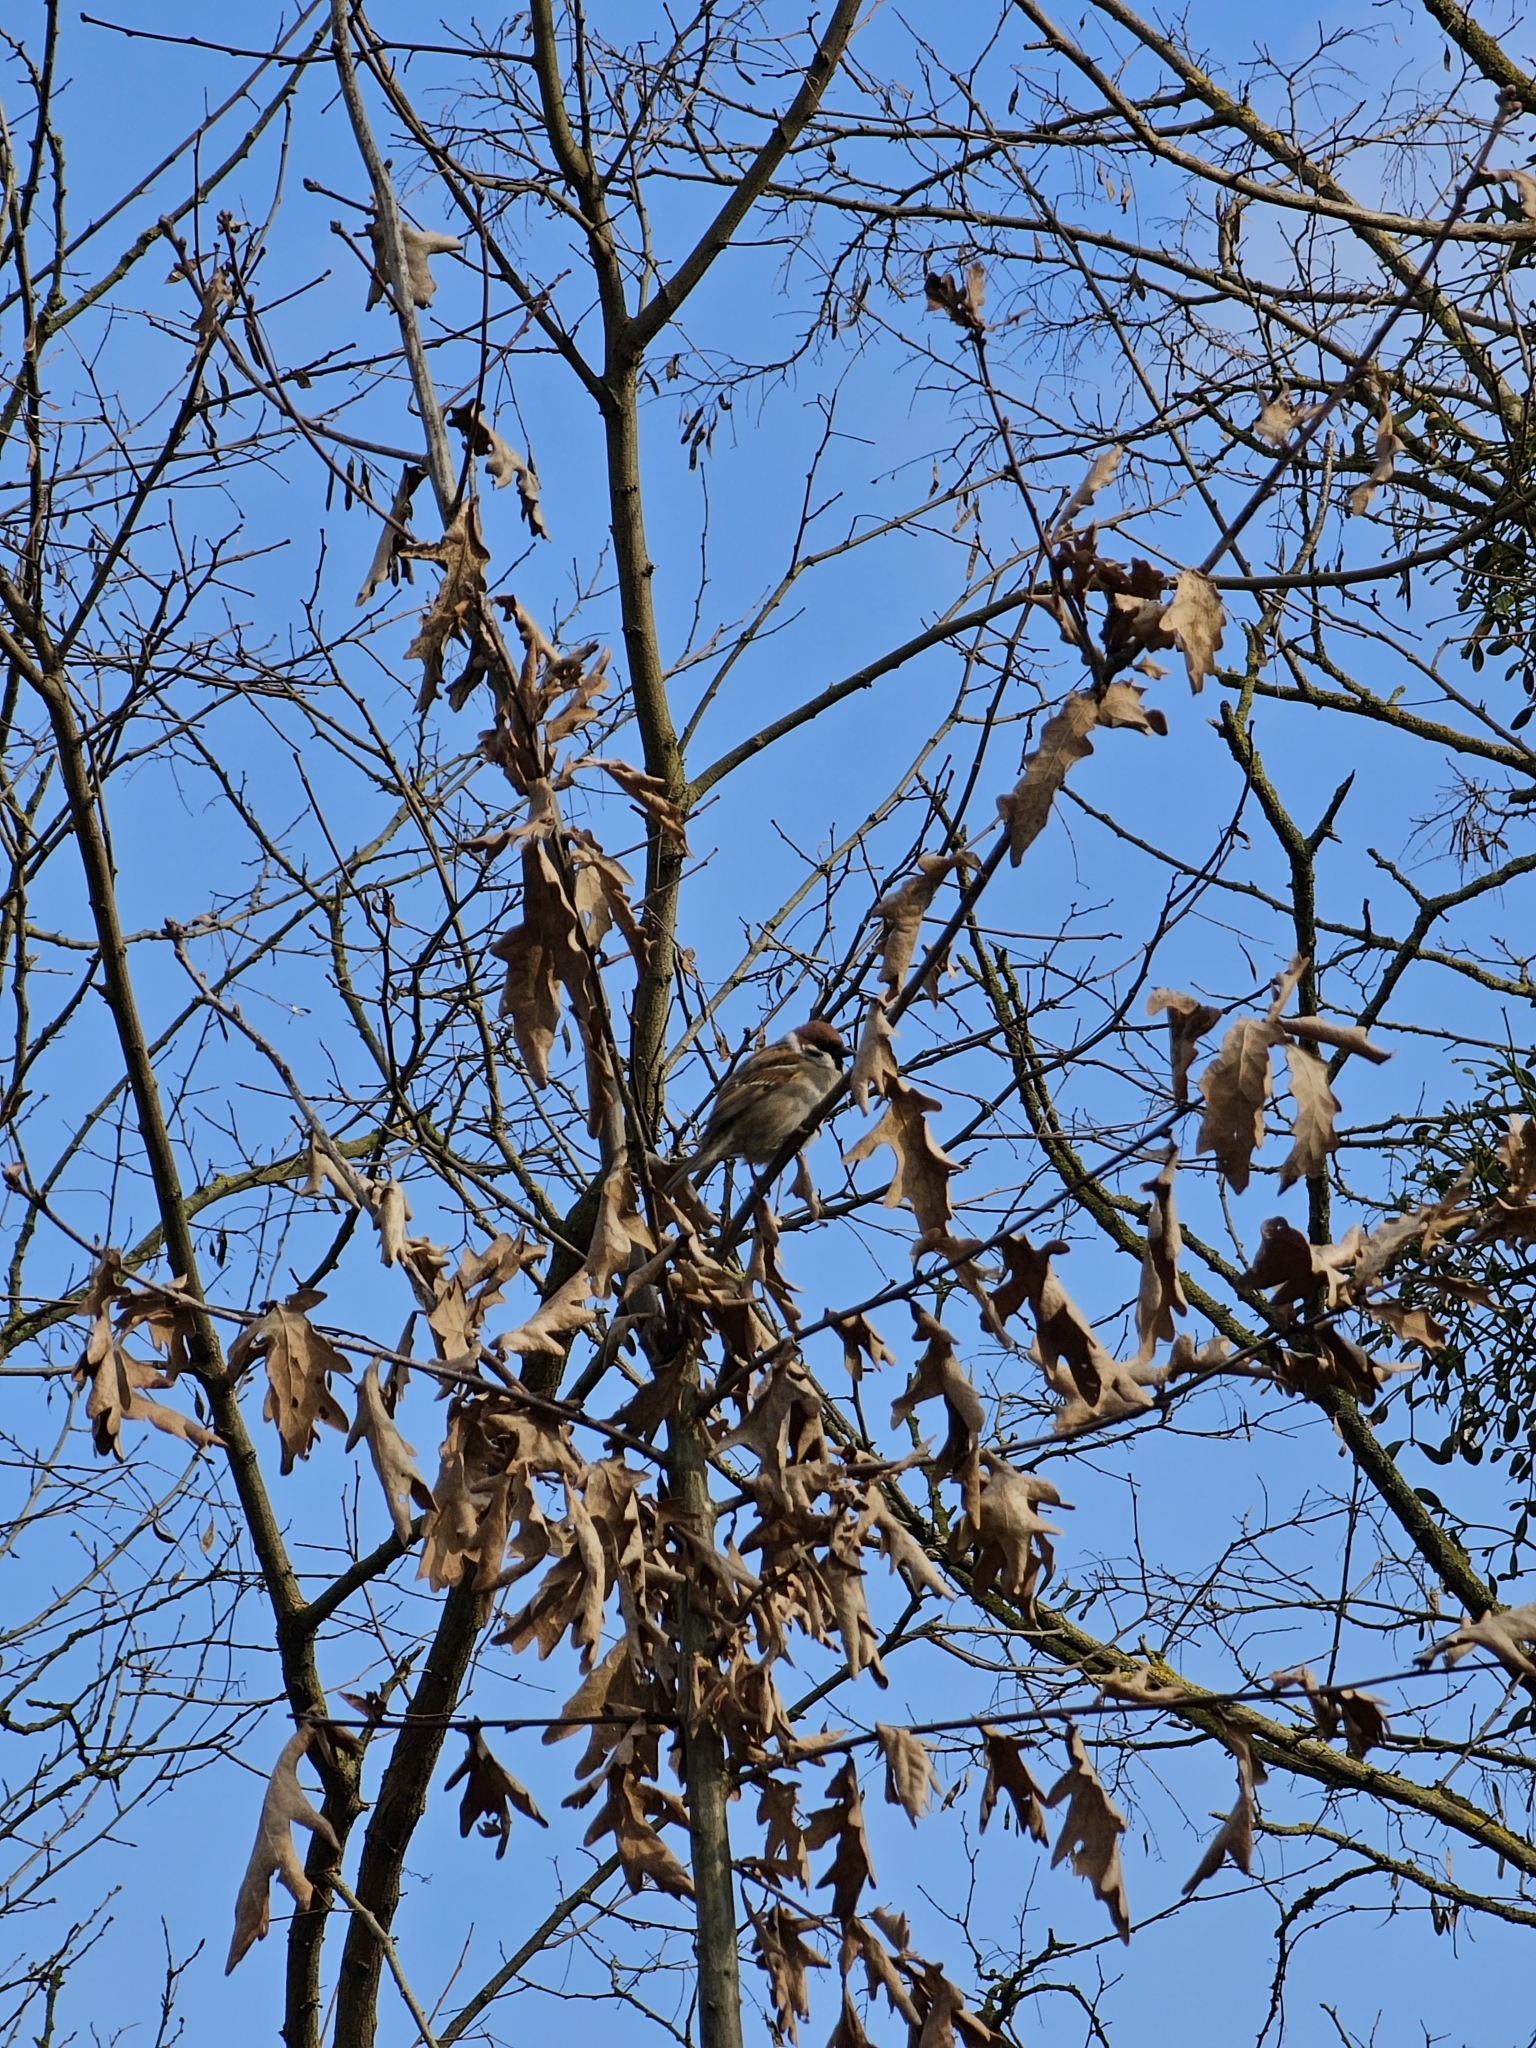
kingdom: Animalia
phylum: Chordata
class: Aves
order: Passeriformes
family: Passeridae
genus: Passer
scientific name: Passer montanus
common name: Eurasian tree sparrow
